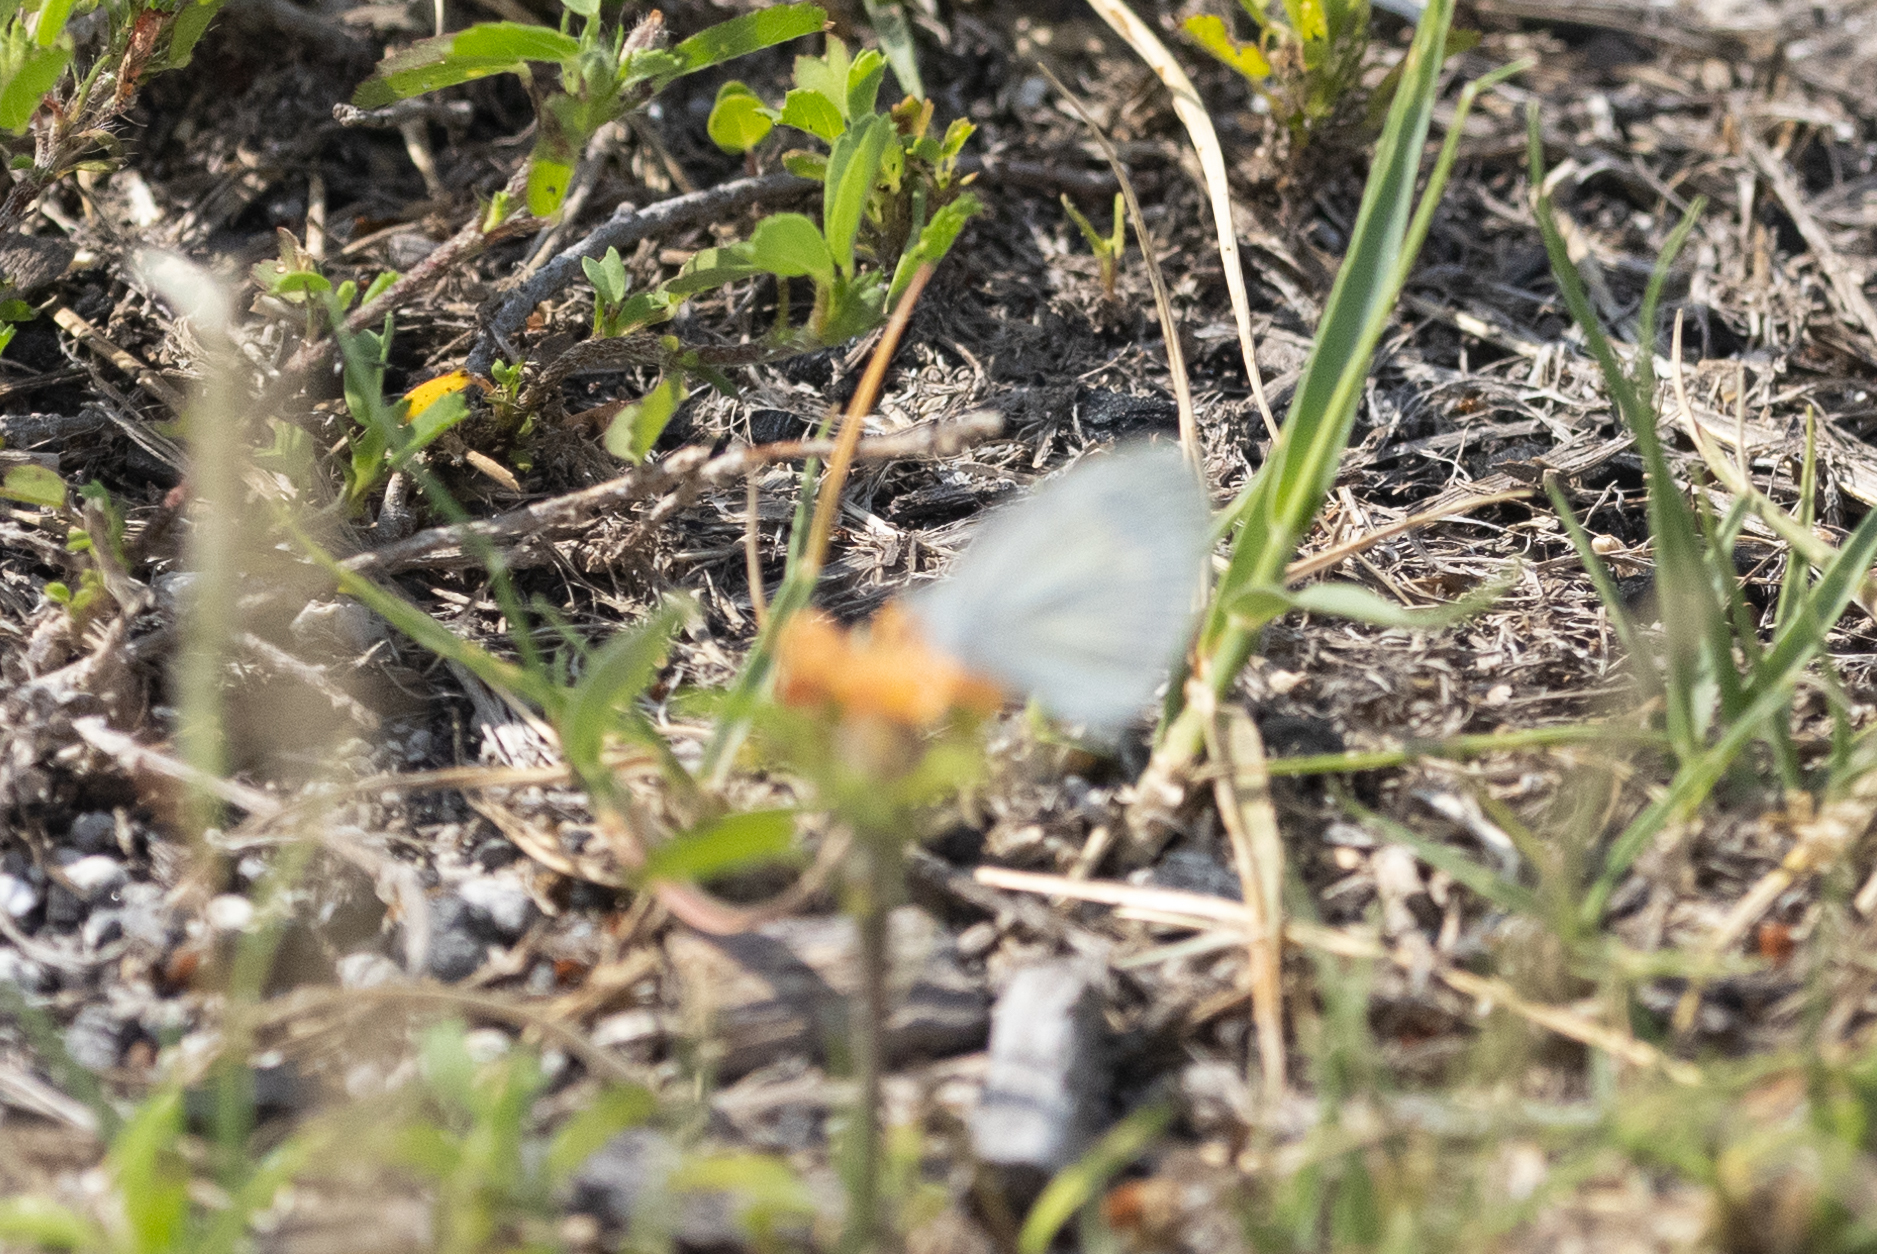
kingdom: Animalia
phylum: Arthropoda
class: Insecta
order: Lepidoptera
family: Pieridae
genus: Eurema
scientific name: Eurema daira
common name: Barred sulphur
